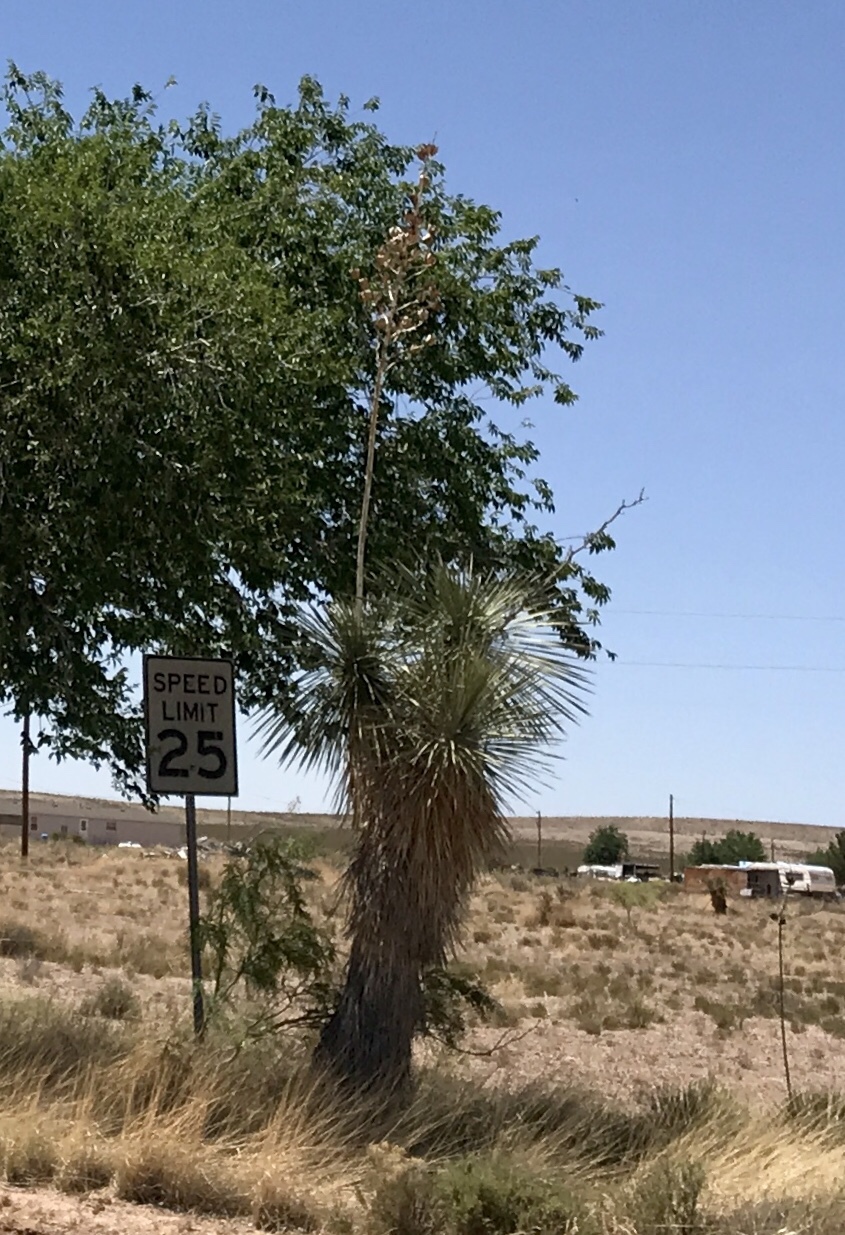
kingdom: Plantae
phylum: Tracheophyta
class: Liliopsida
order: Asparagales
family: Asparagaceae
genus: Yucca
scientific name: Yucca elata
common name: Palmella
